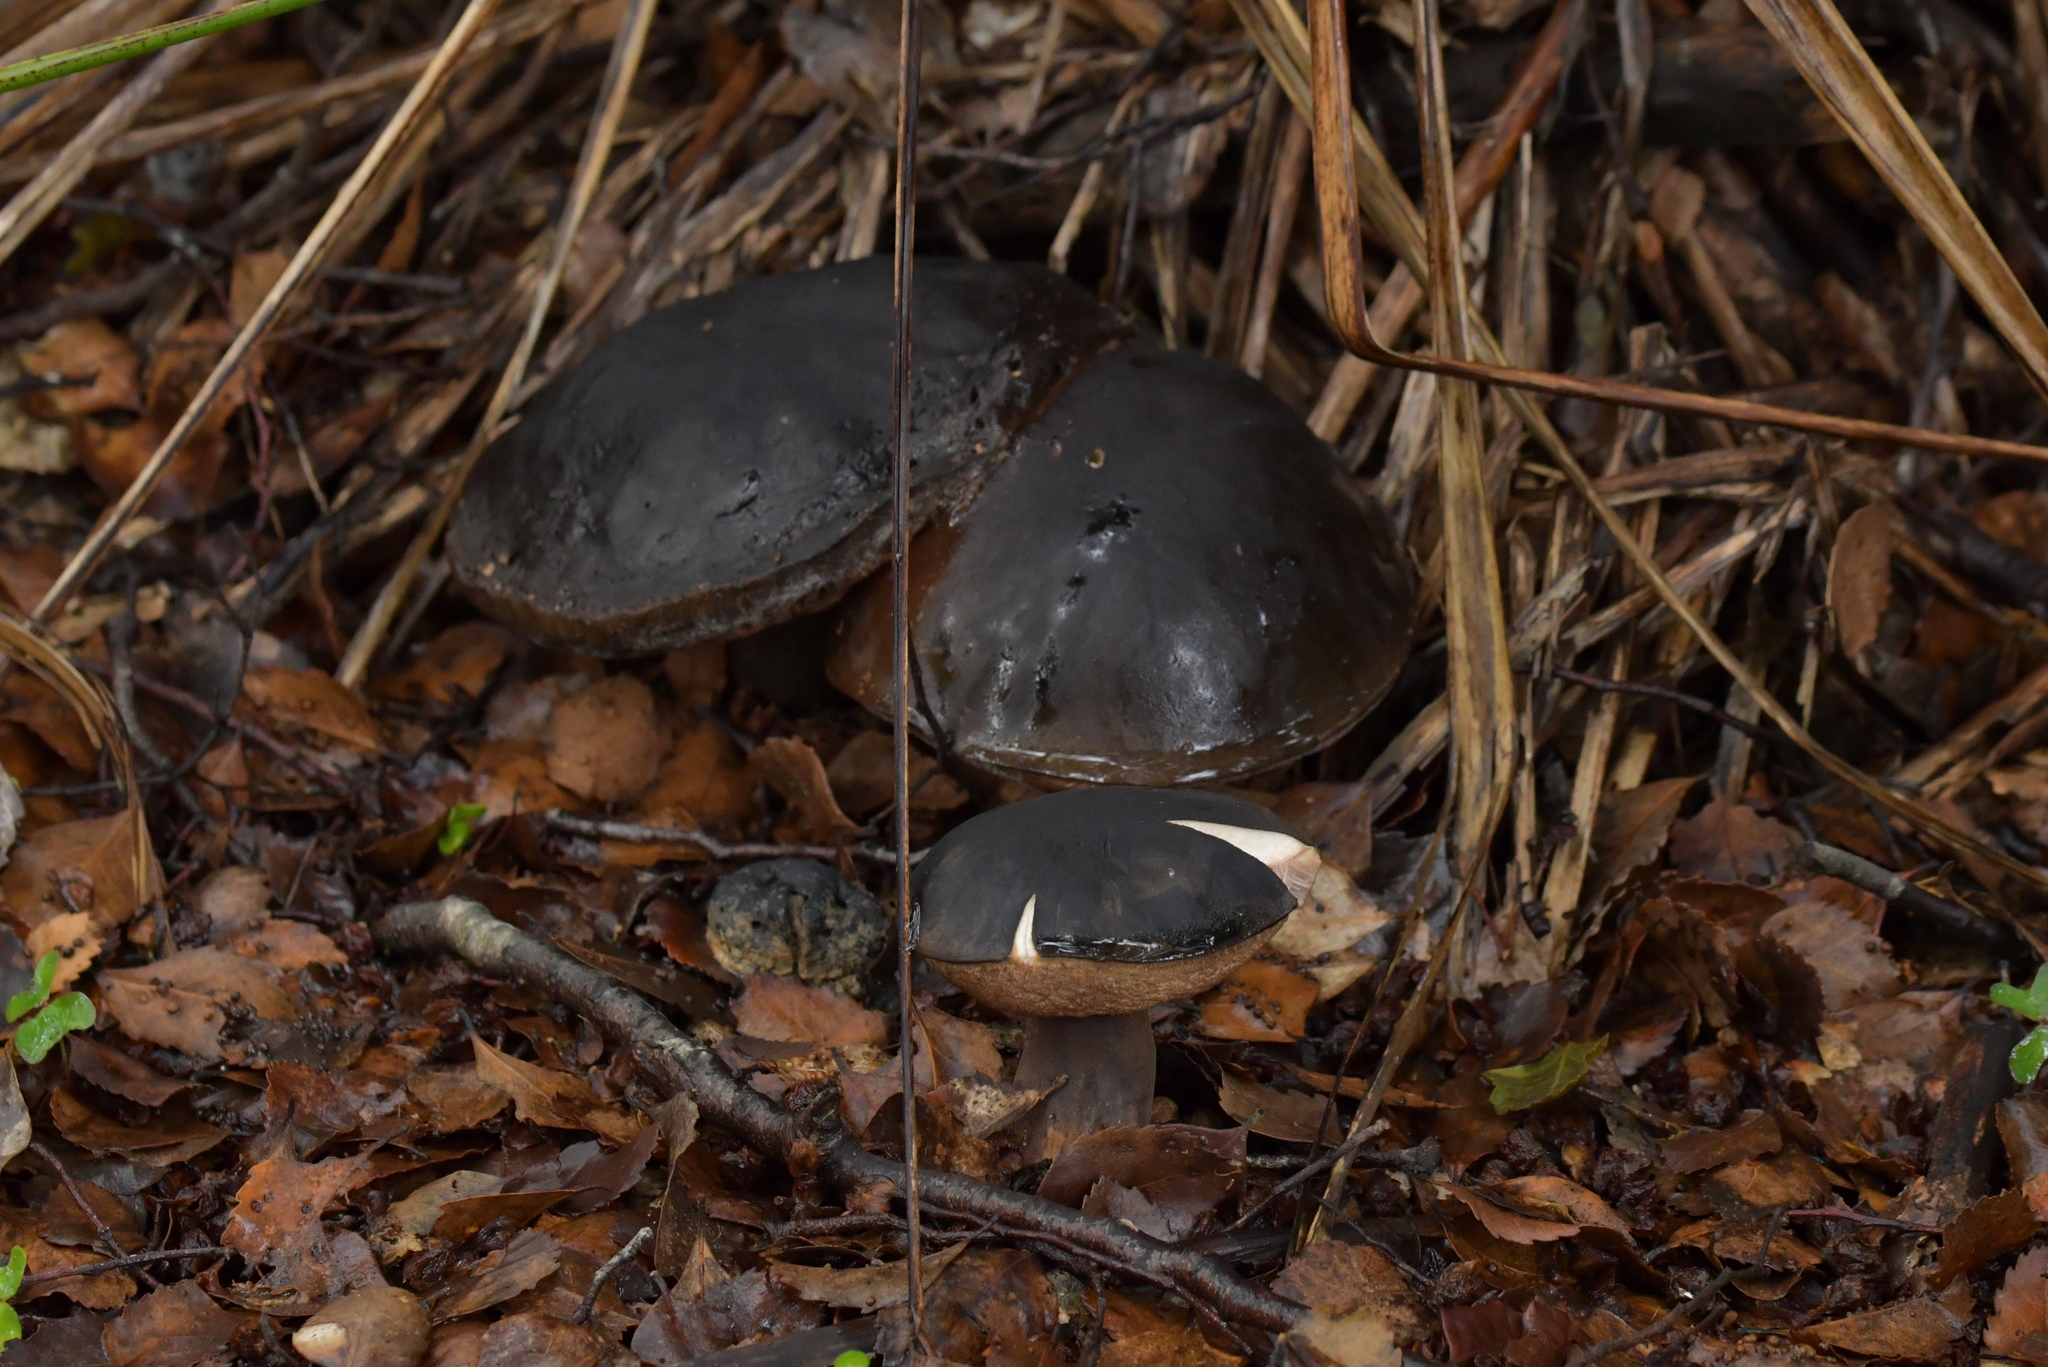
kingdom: Fungi
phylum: Basidiomycota
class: Agaricomycetes
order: Boletales
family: Boletaceae
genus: Porphyrellus
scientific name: Porphyrellus formosus
